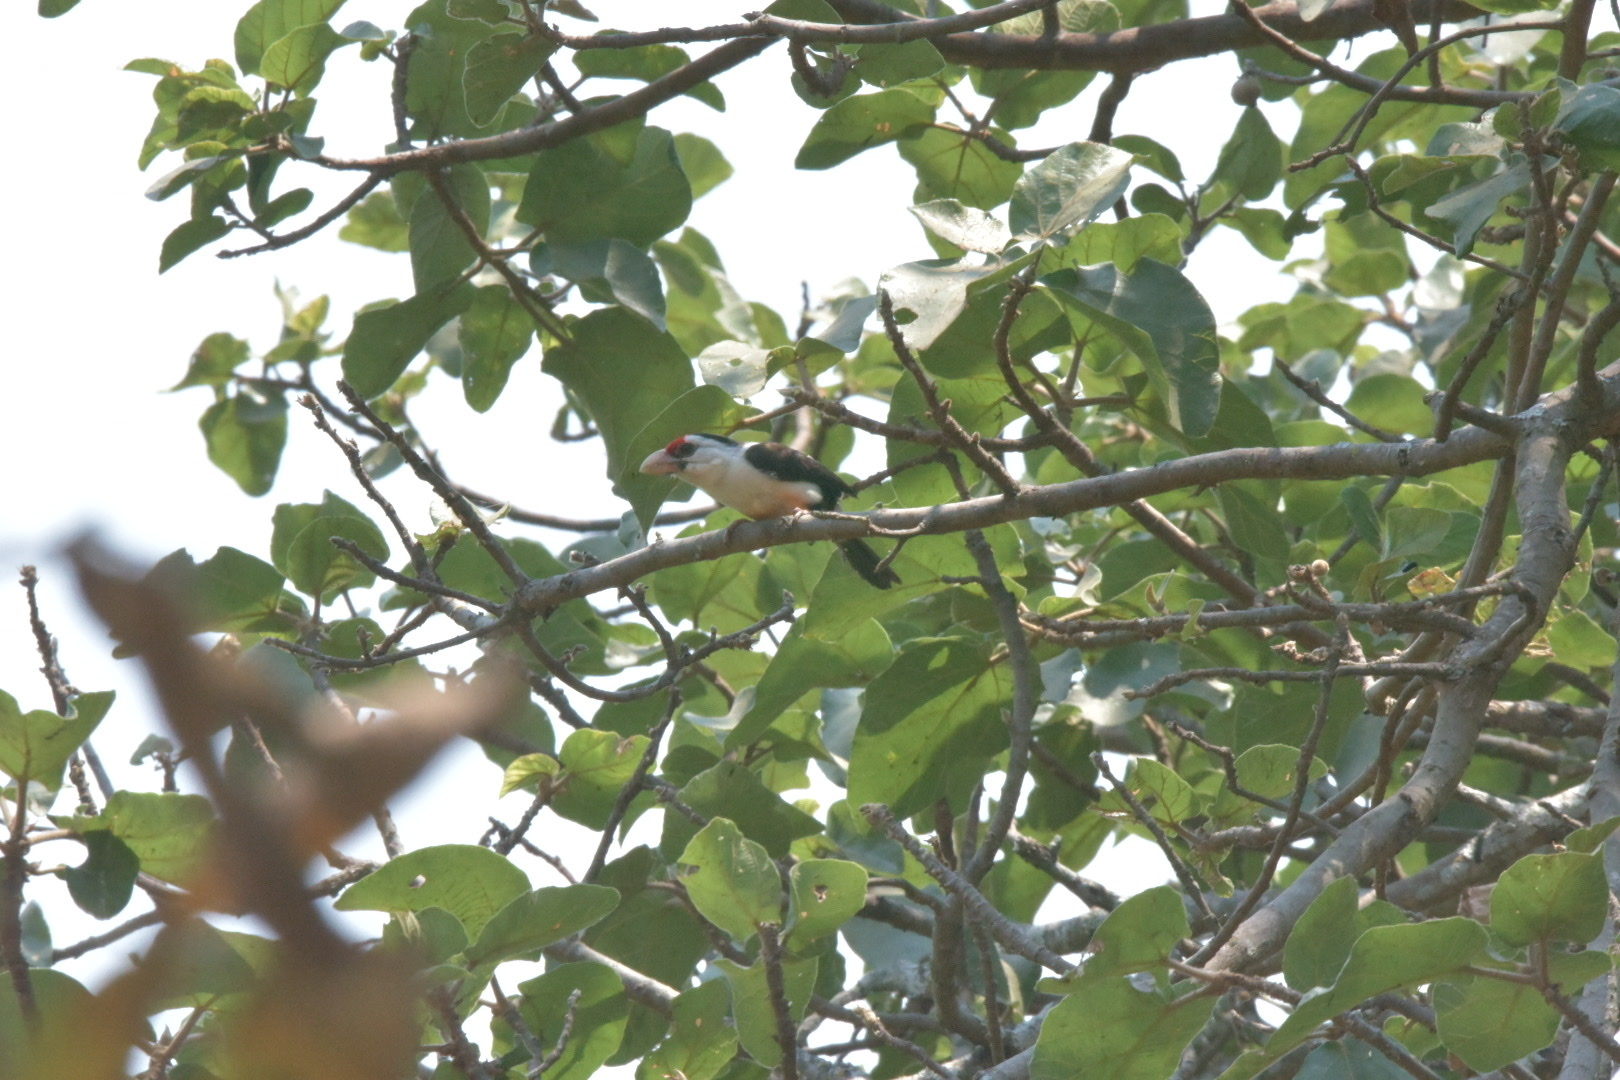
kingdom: Animalia
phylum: Chordata
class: Aves
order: Piciformes
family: Lybiidae
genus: Lybius
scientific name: Lybius minor
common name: Black-backed barbet
